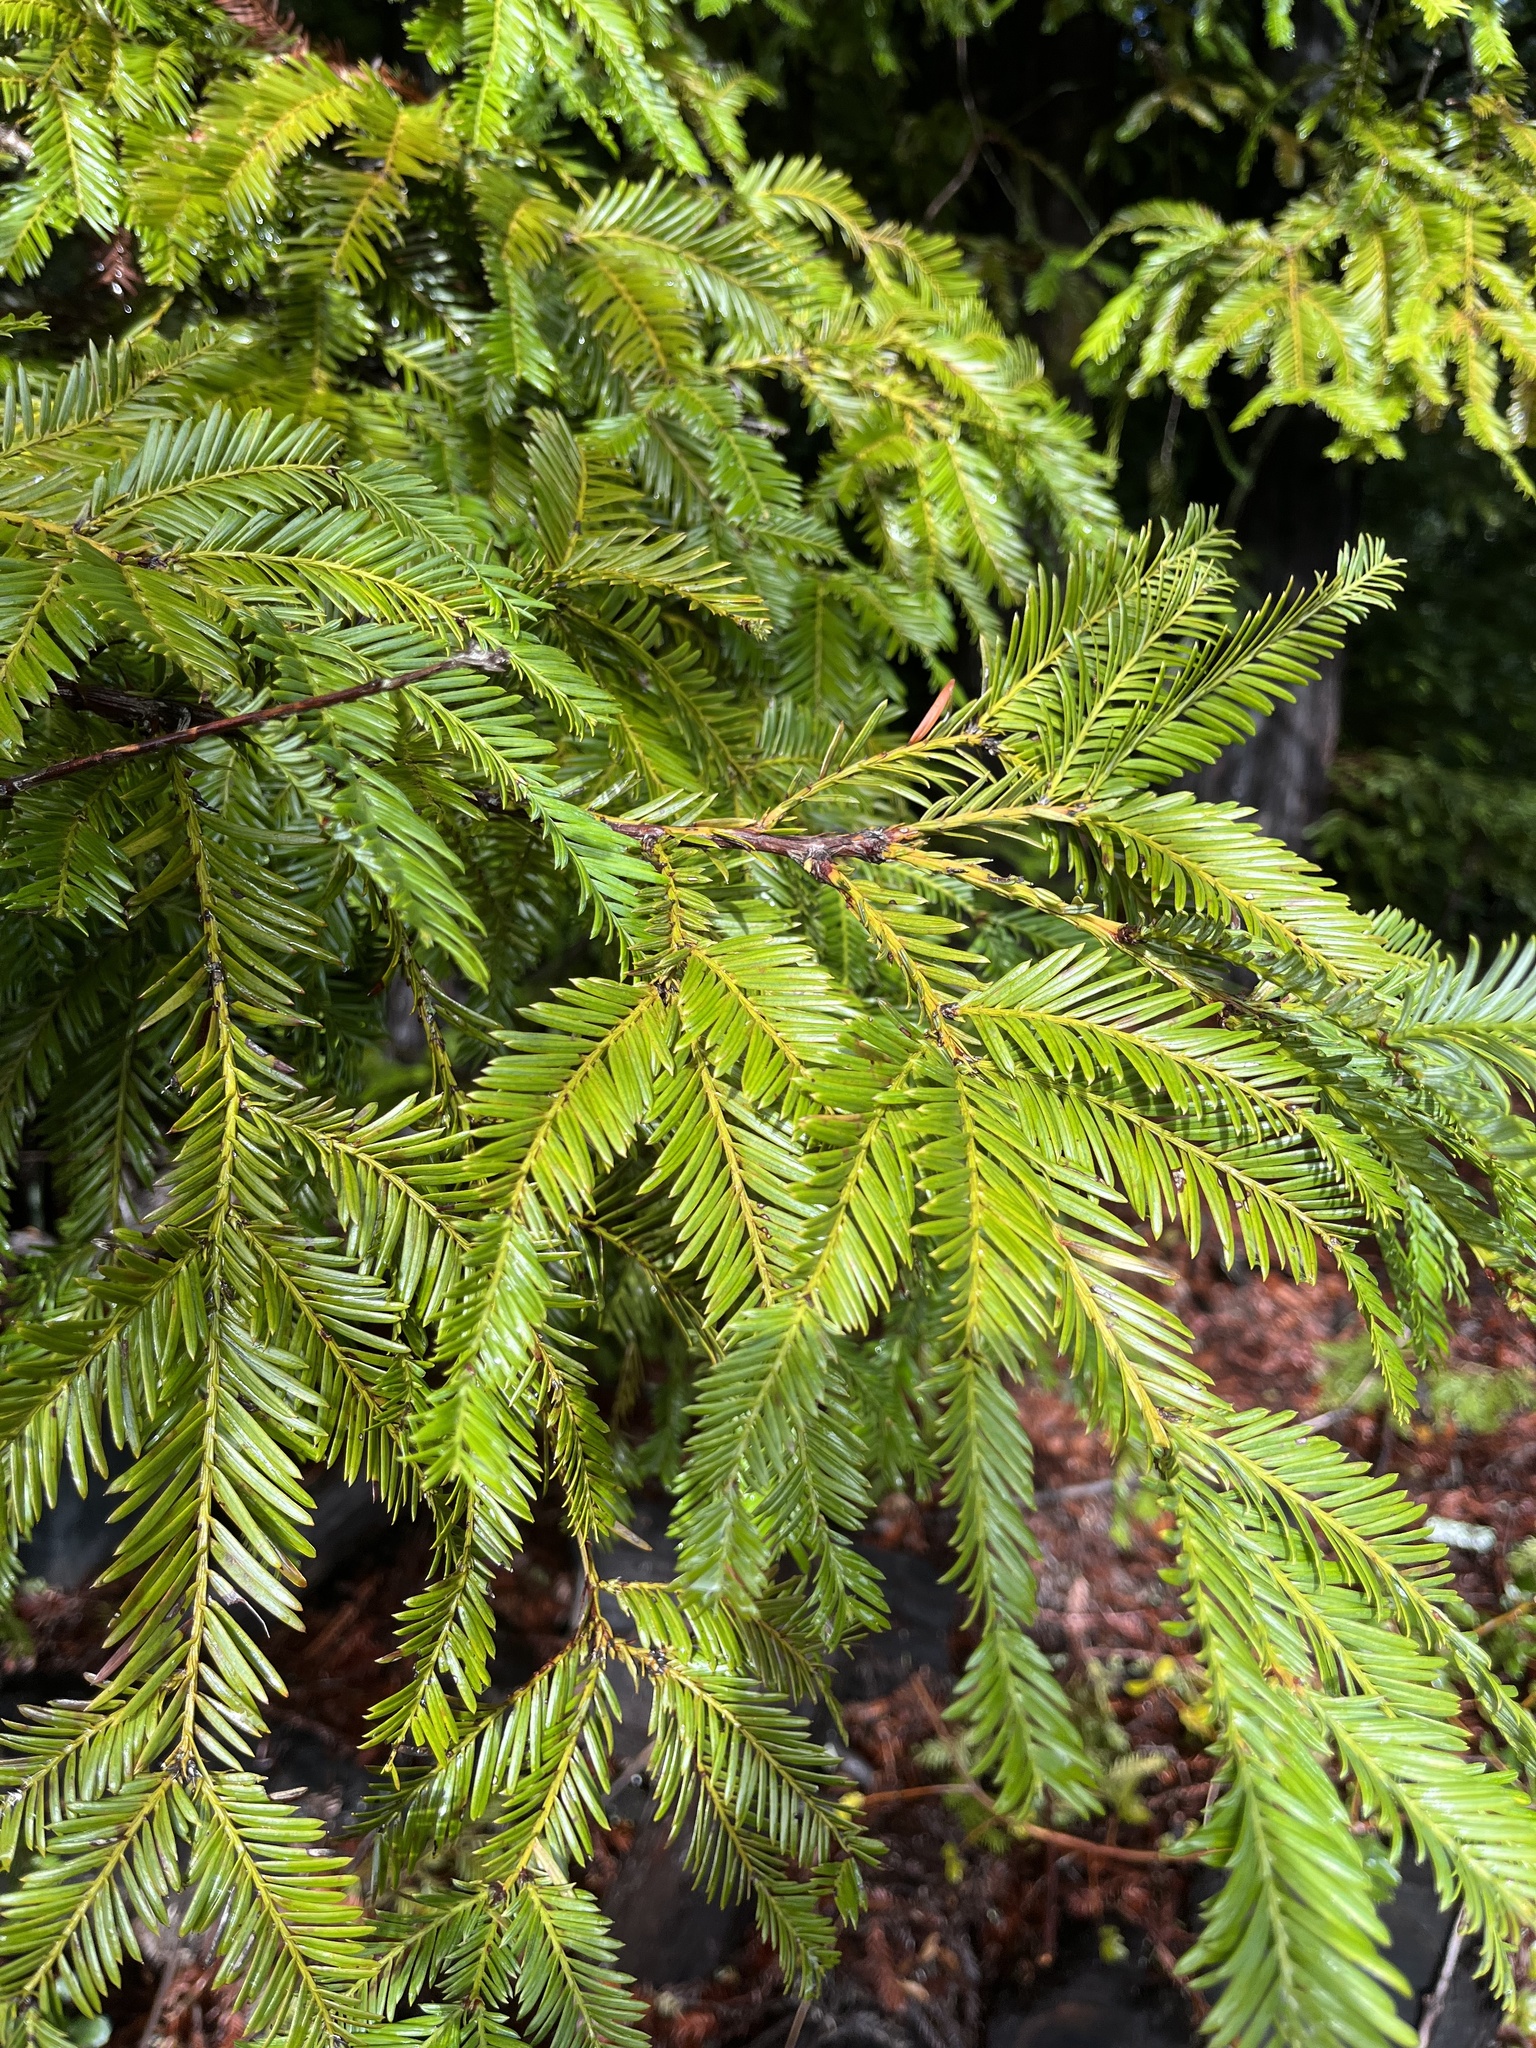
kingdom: Plantae
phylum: Tracheophyta
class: Pinopsida
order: Pinales
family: Cupressaceae
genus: Sequoia
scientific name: Sequoia sempervirens
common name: Coast redwood
